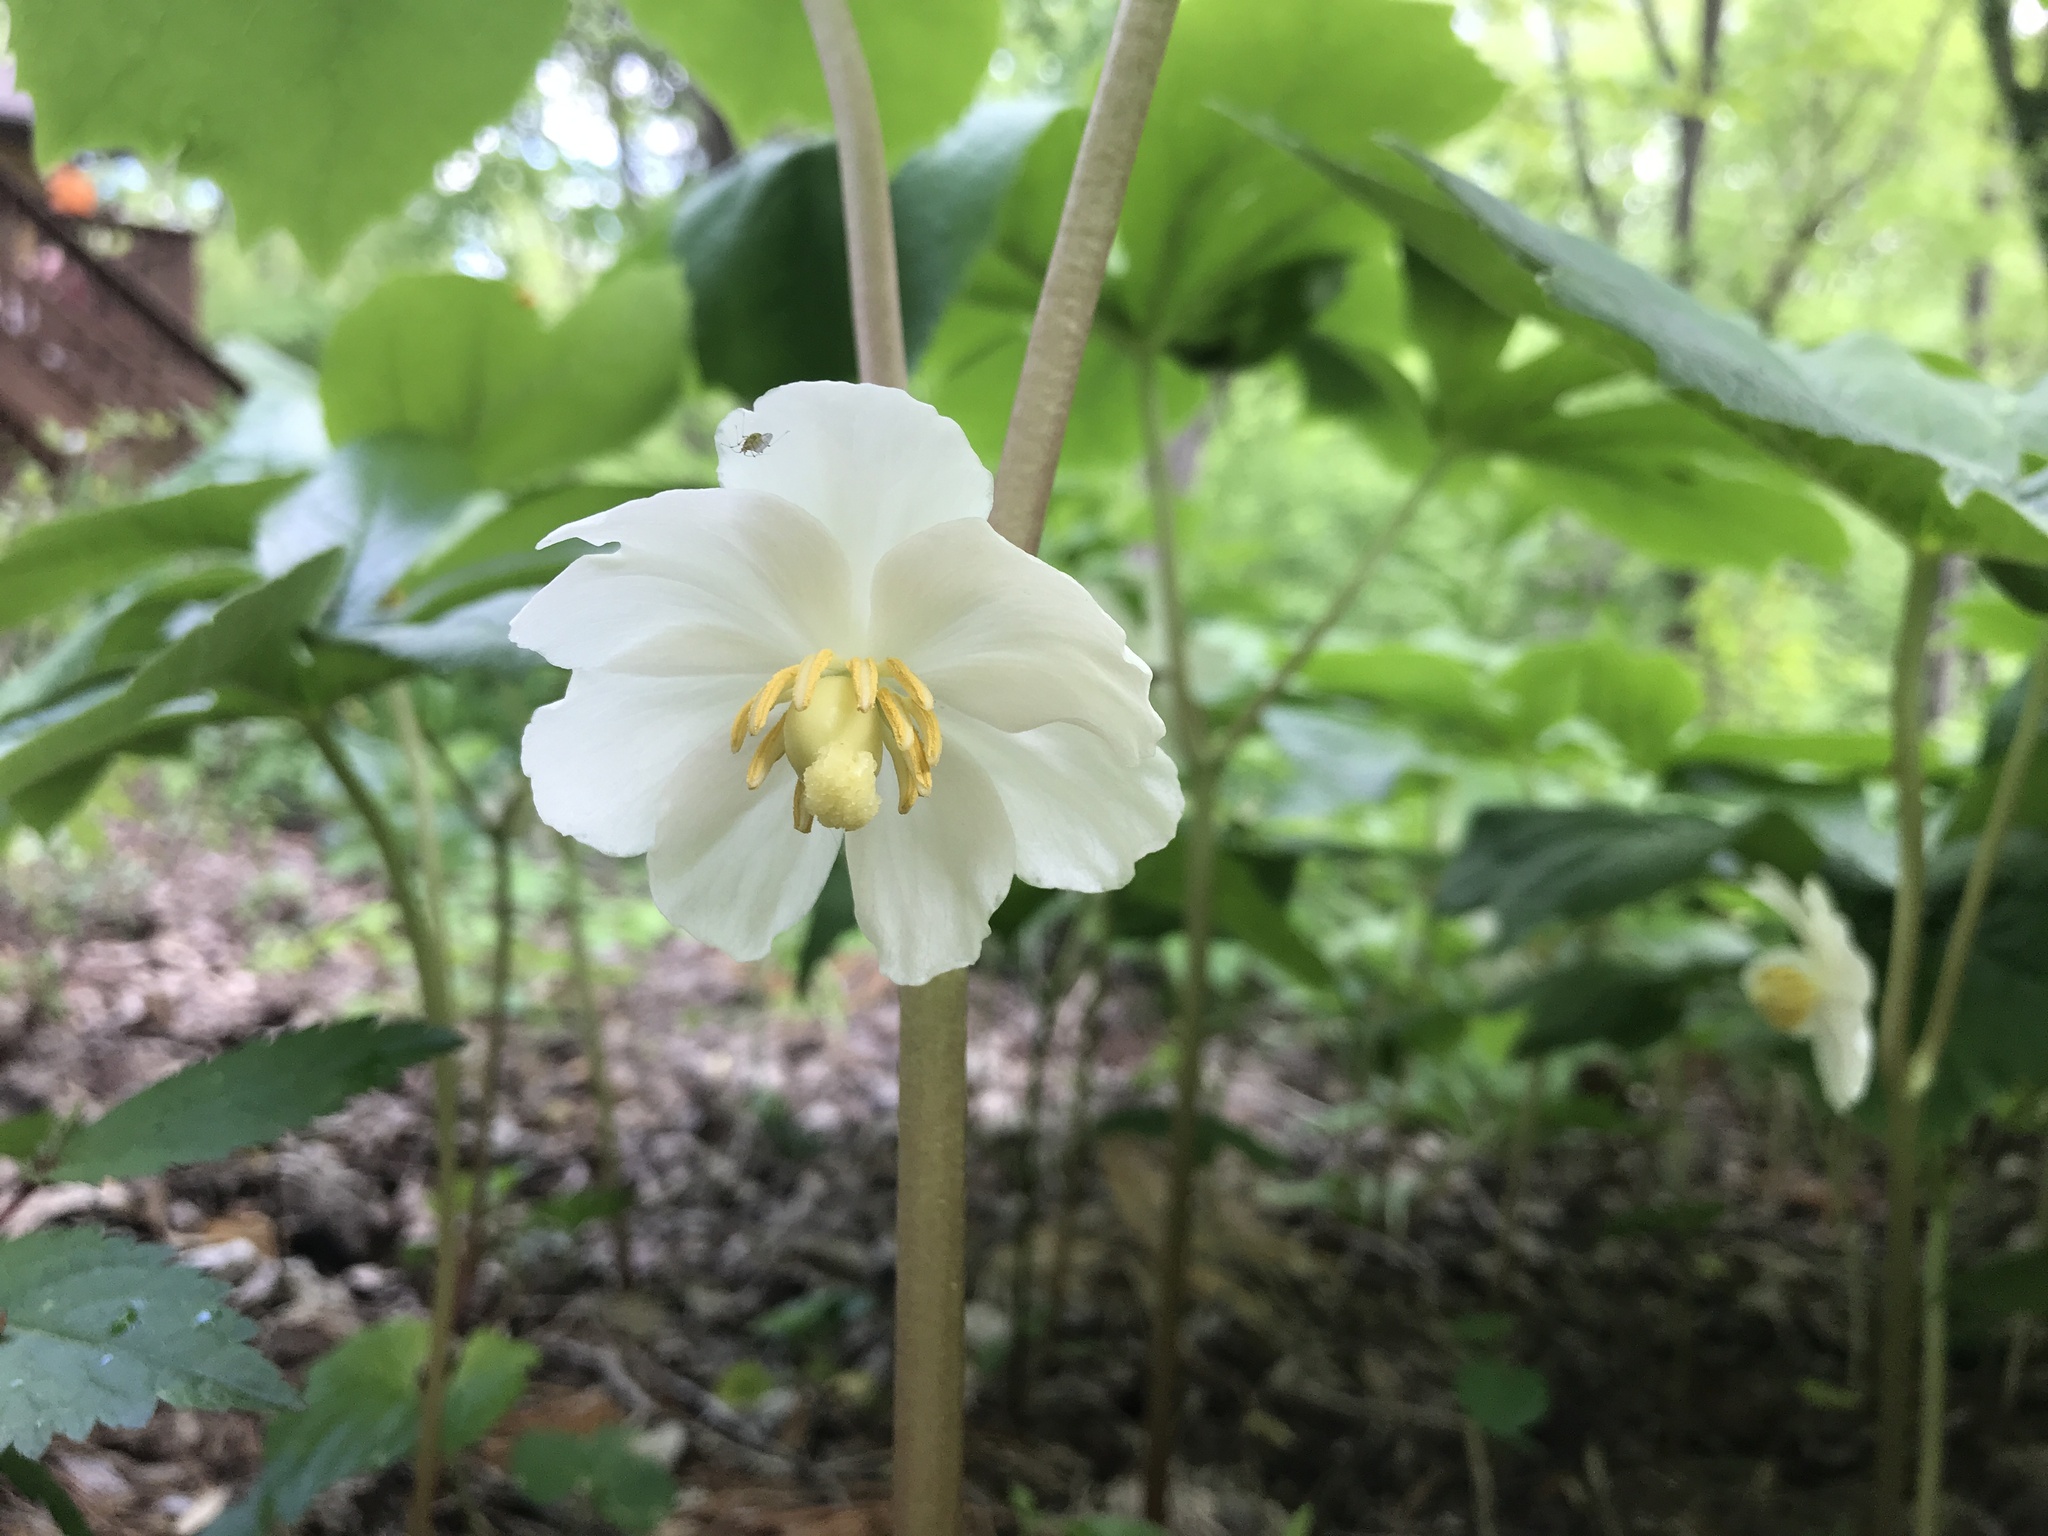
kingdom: Plantae
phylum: Tracheophyta
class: Magnoliopsida
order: Ranunculales
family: Berberidaceae
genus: Podophyllum
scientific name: Podophyllum peltatum
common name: Wild mandrake
